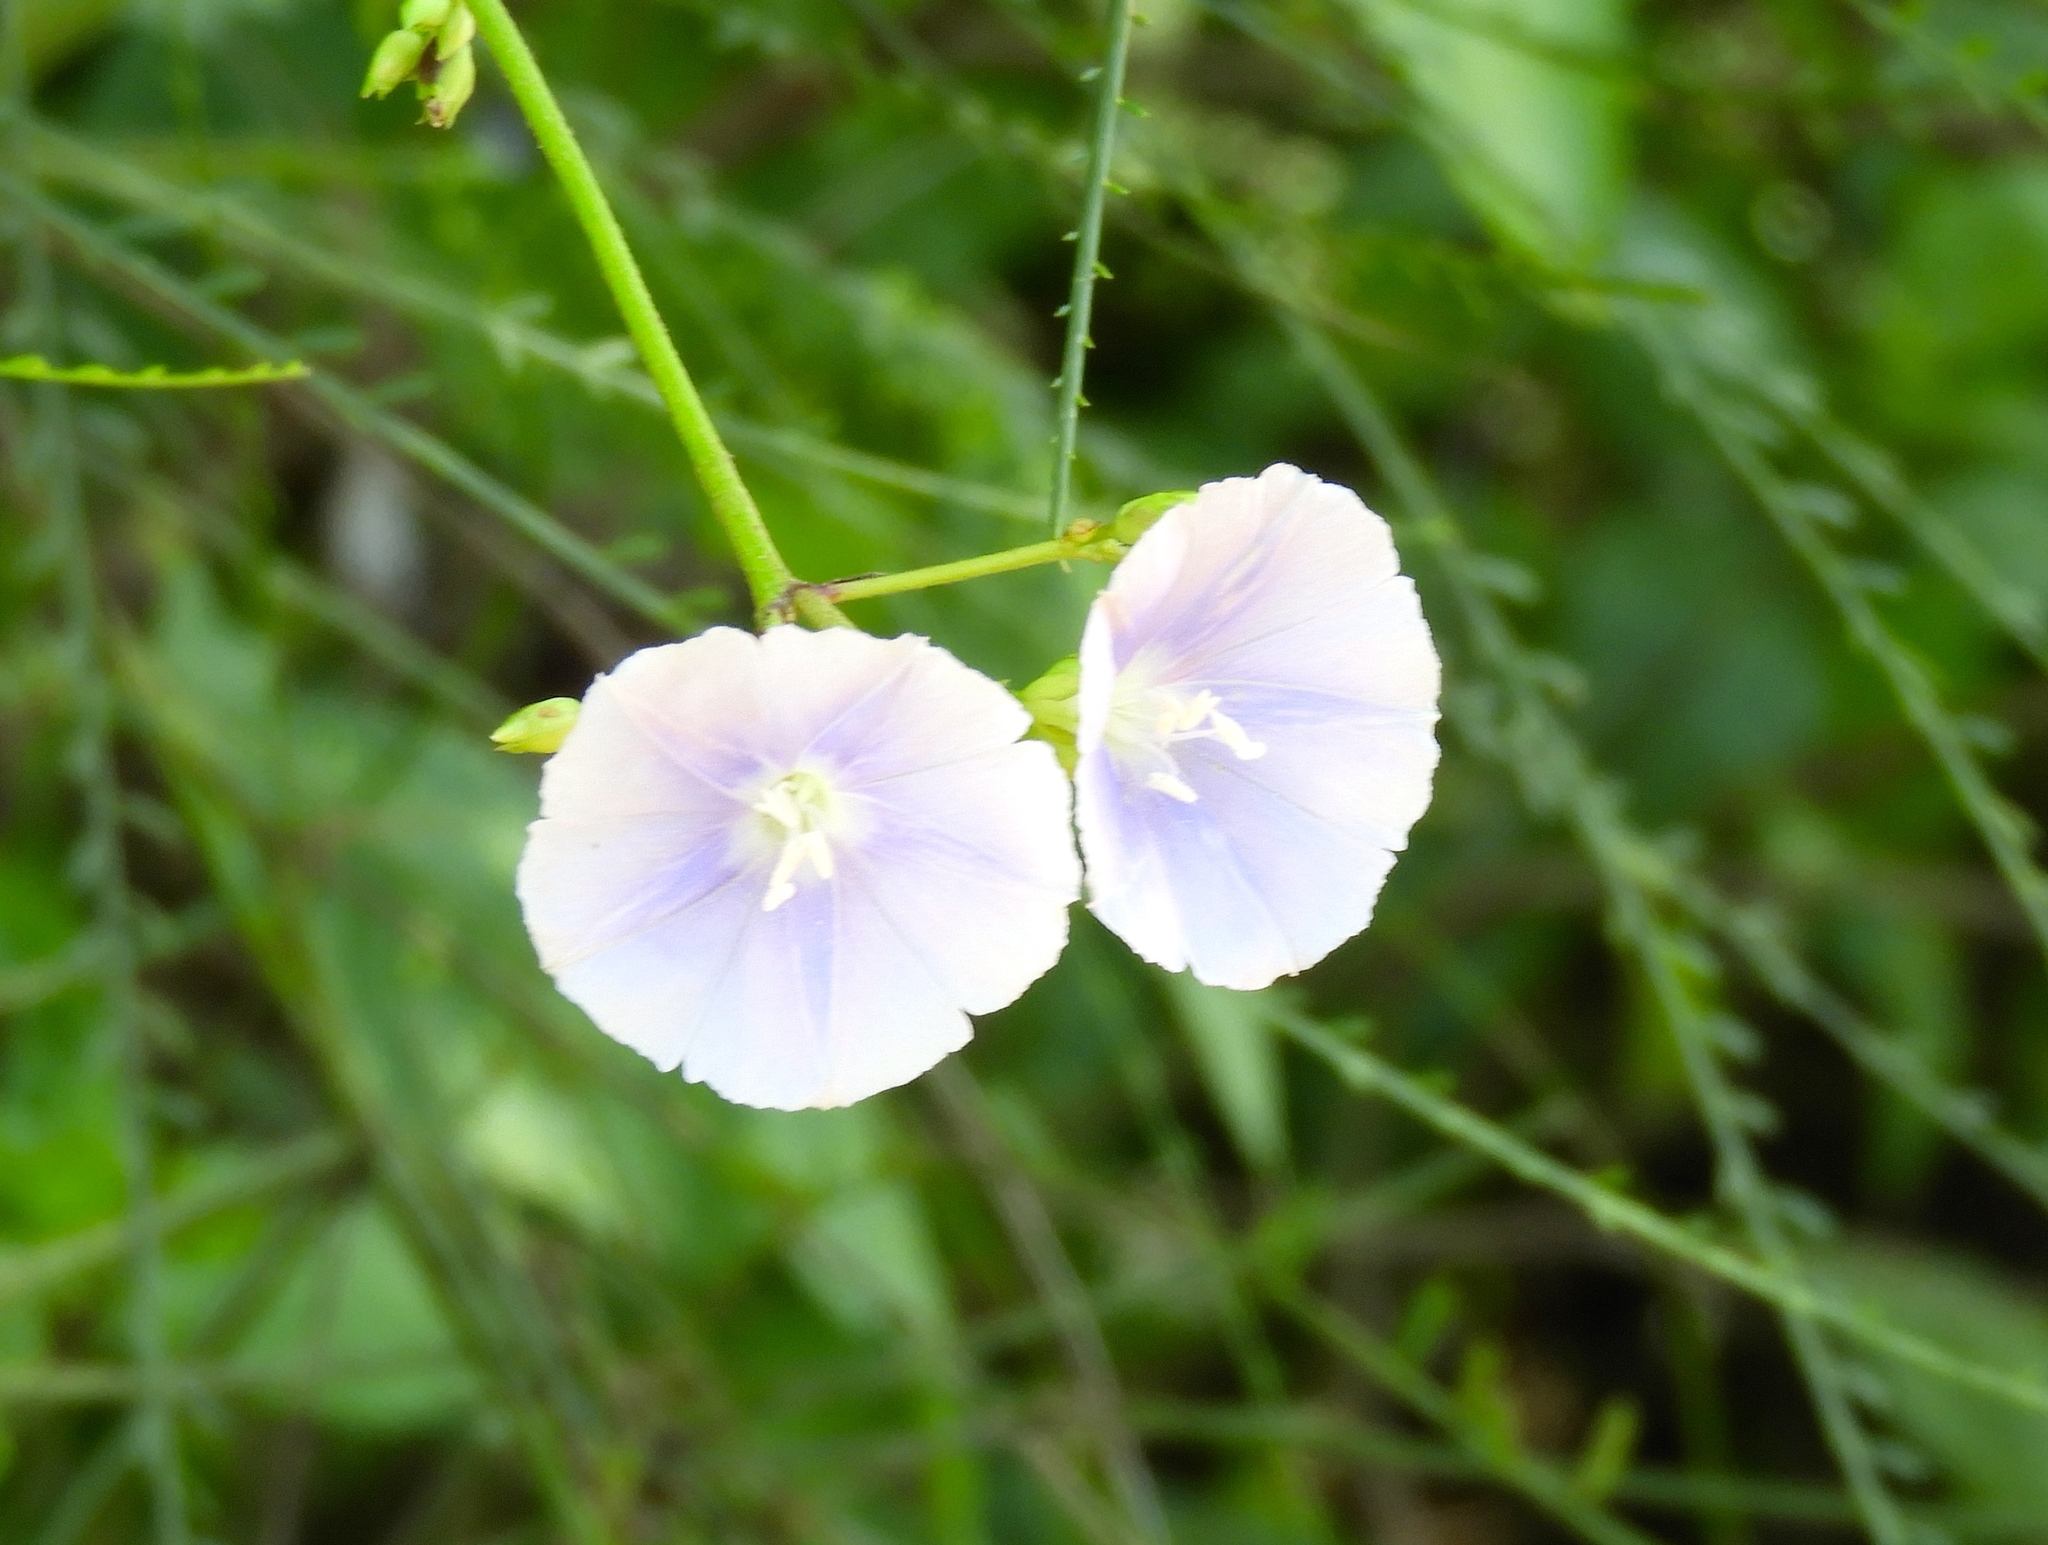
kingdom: Plantae
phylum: Tracheophyta
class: Magnoliopsida
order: Solanales
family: Convolvulaceae
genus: Jacquemontia
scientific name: Jacquemontia
